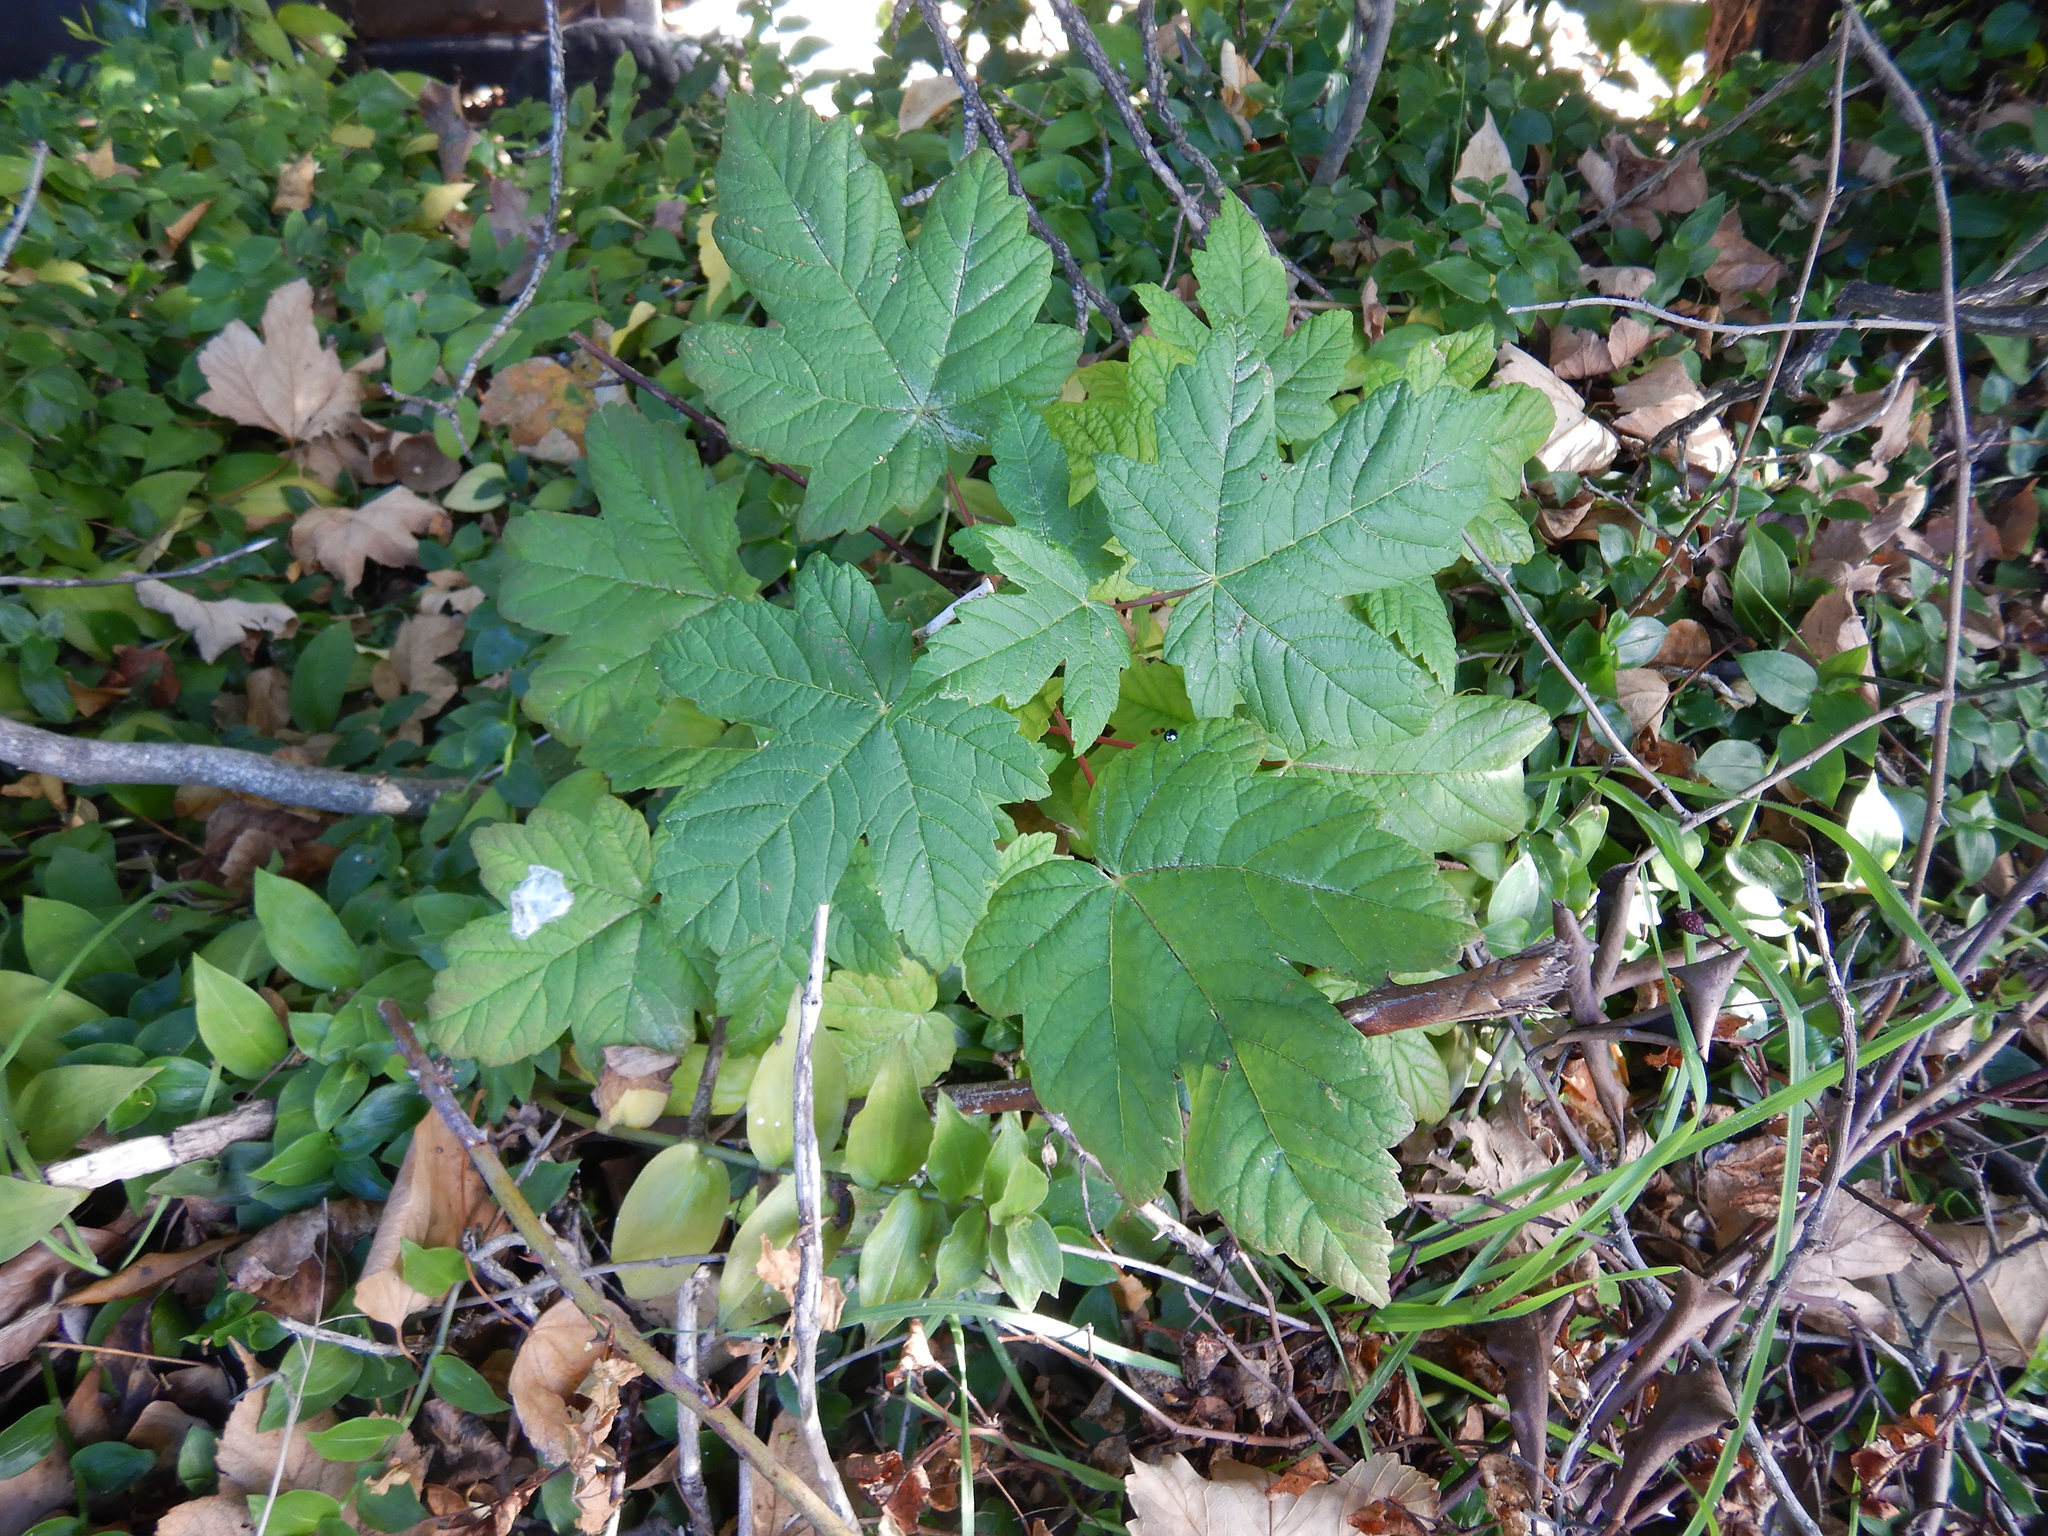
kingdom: Plantae
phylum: Tracheophyta
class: Magnoliopsida
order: Sapindales
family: Sapindaceae
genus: Acer
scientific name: Acer pseudoplatanus
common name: Sycamore
